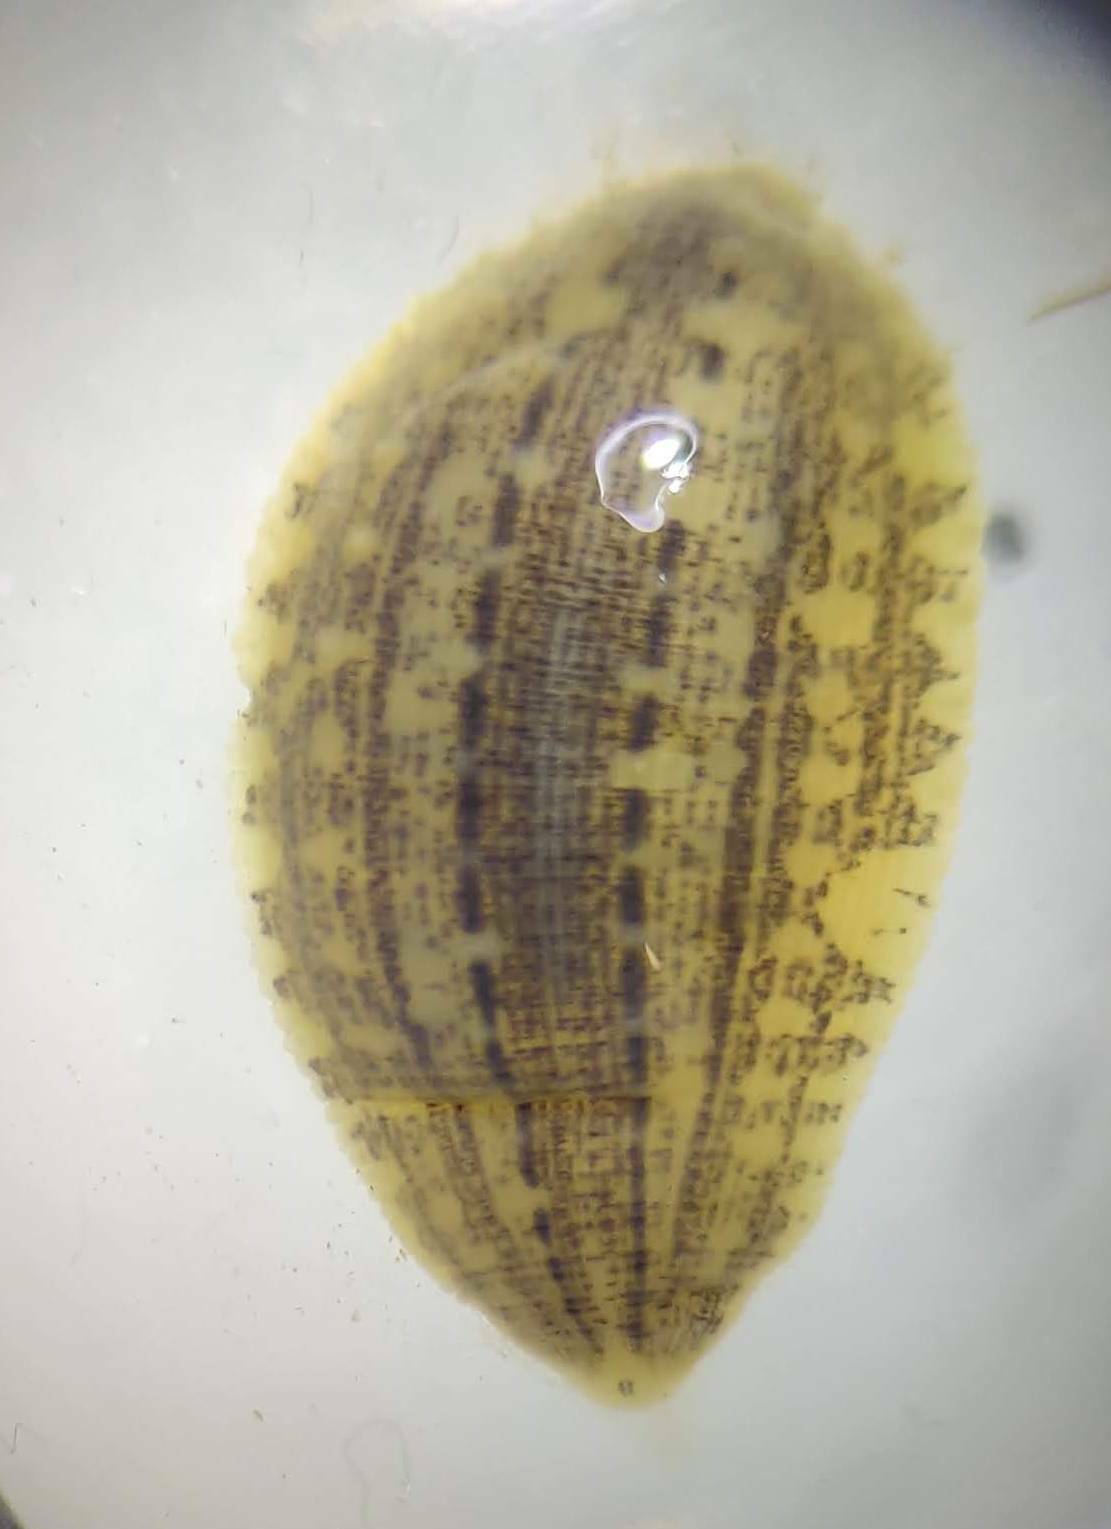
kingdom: Animalia
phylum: Annelida
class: Clitellata
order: Rhynchobdellida
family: Glossiphoniidae
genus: Glossiphonia
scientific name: Glossiphonia complanata
